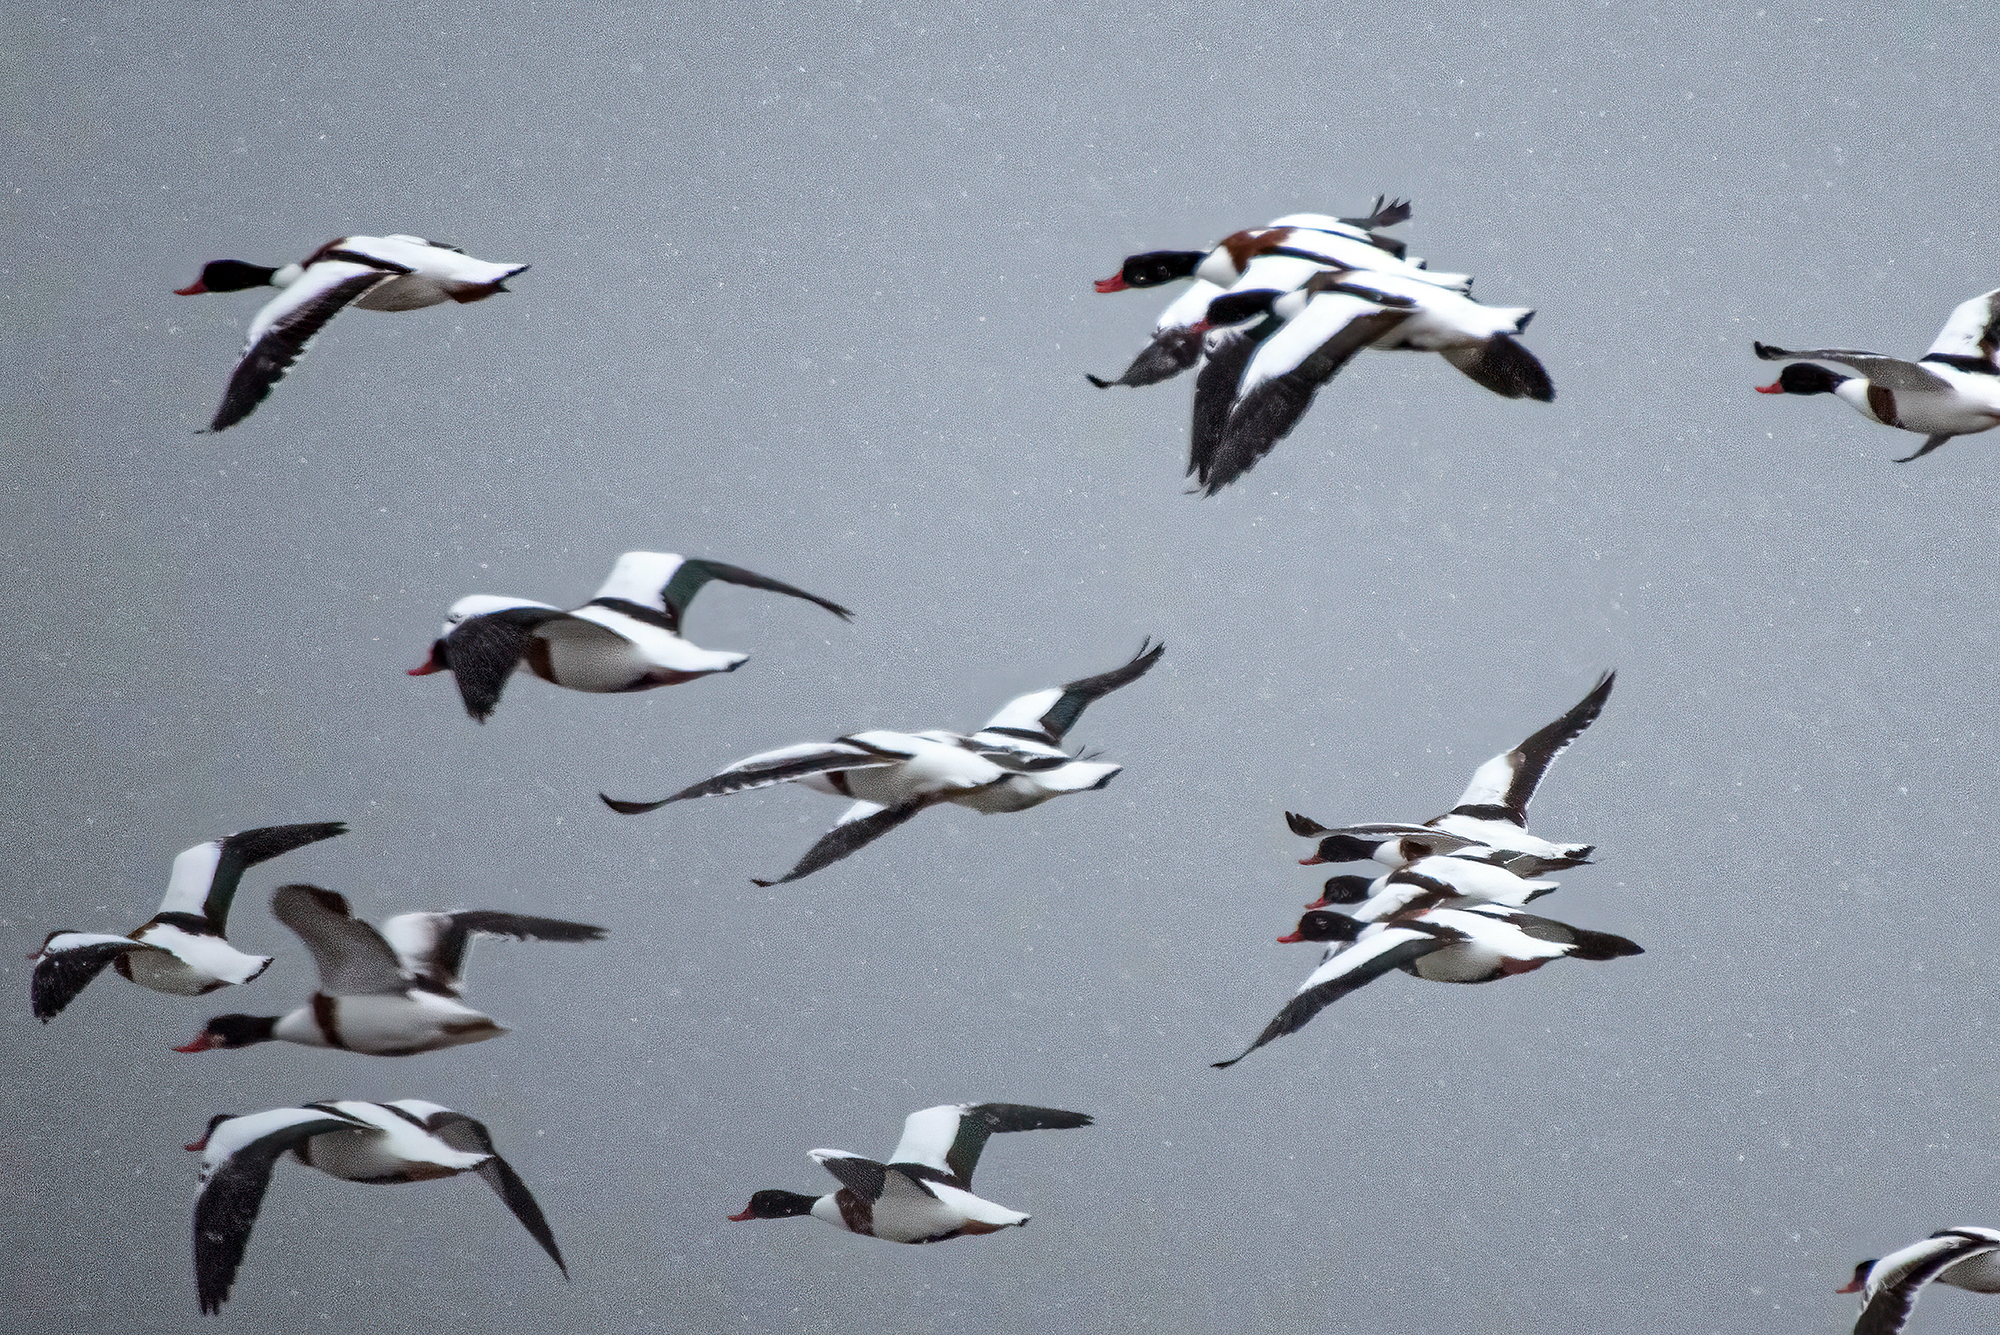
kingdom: Animalia
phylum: Chordata
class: Aves
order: Anseriformes
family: Anatidae
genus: Tadorna
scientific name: Tadorna tadorna
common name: Common shelduck
